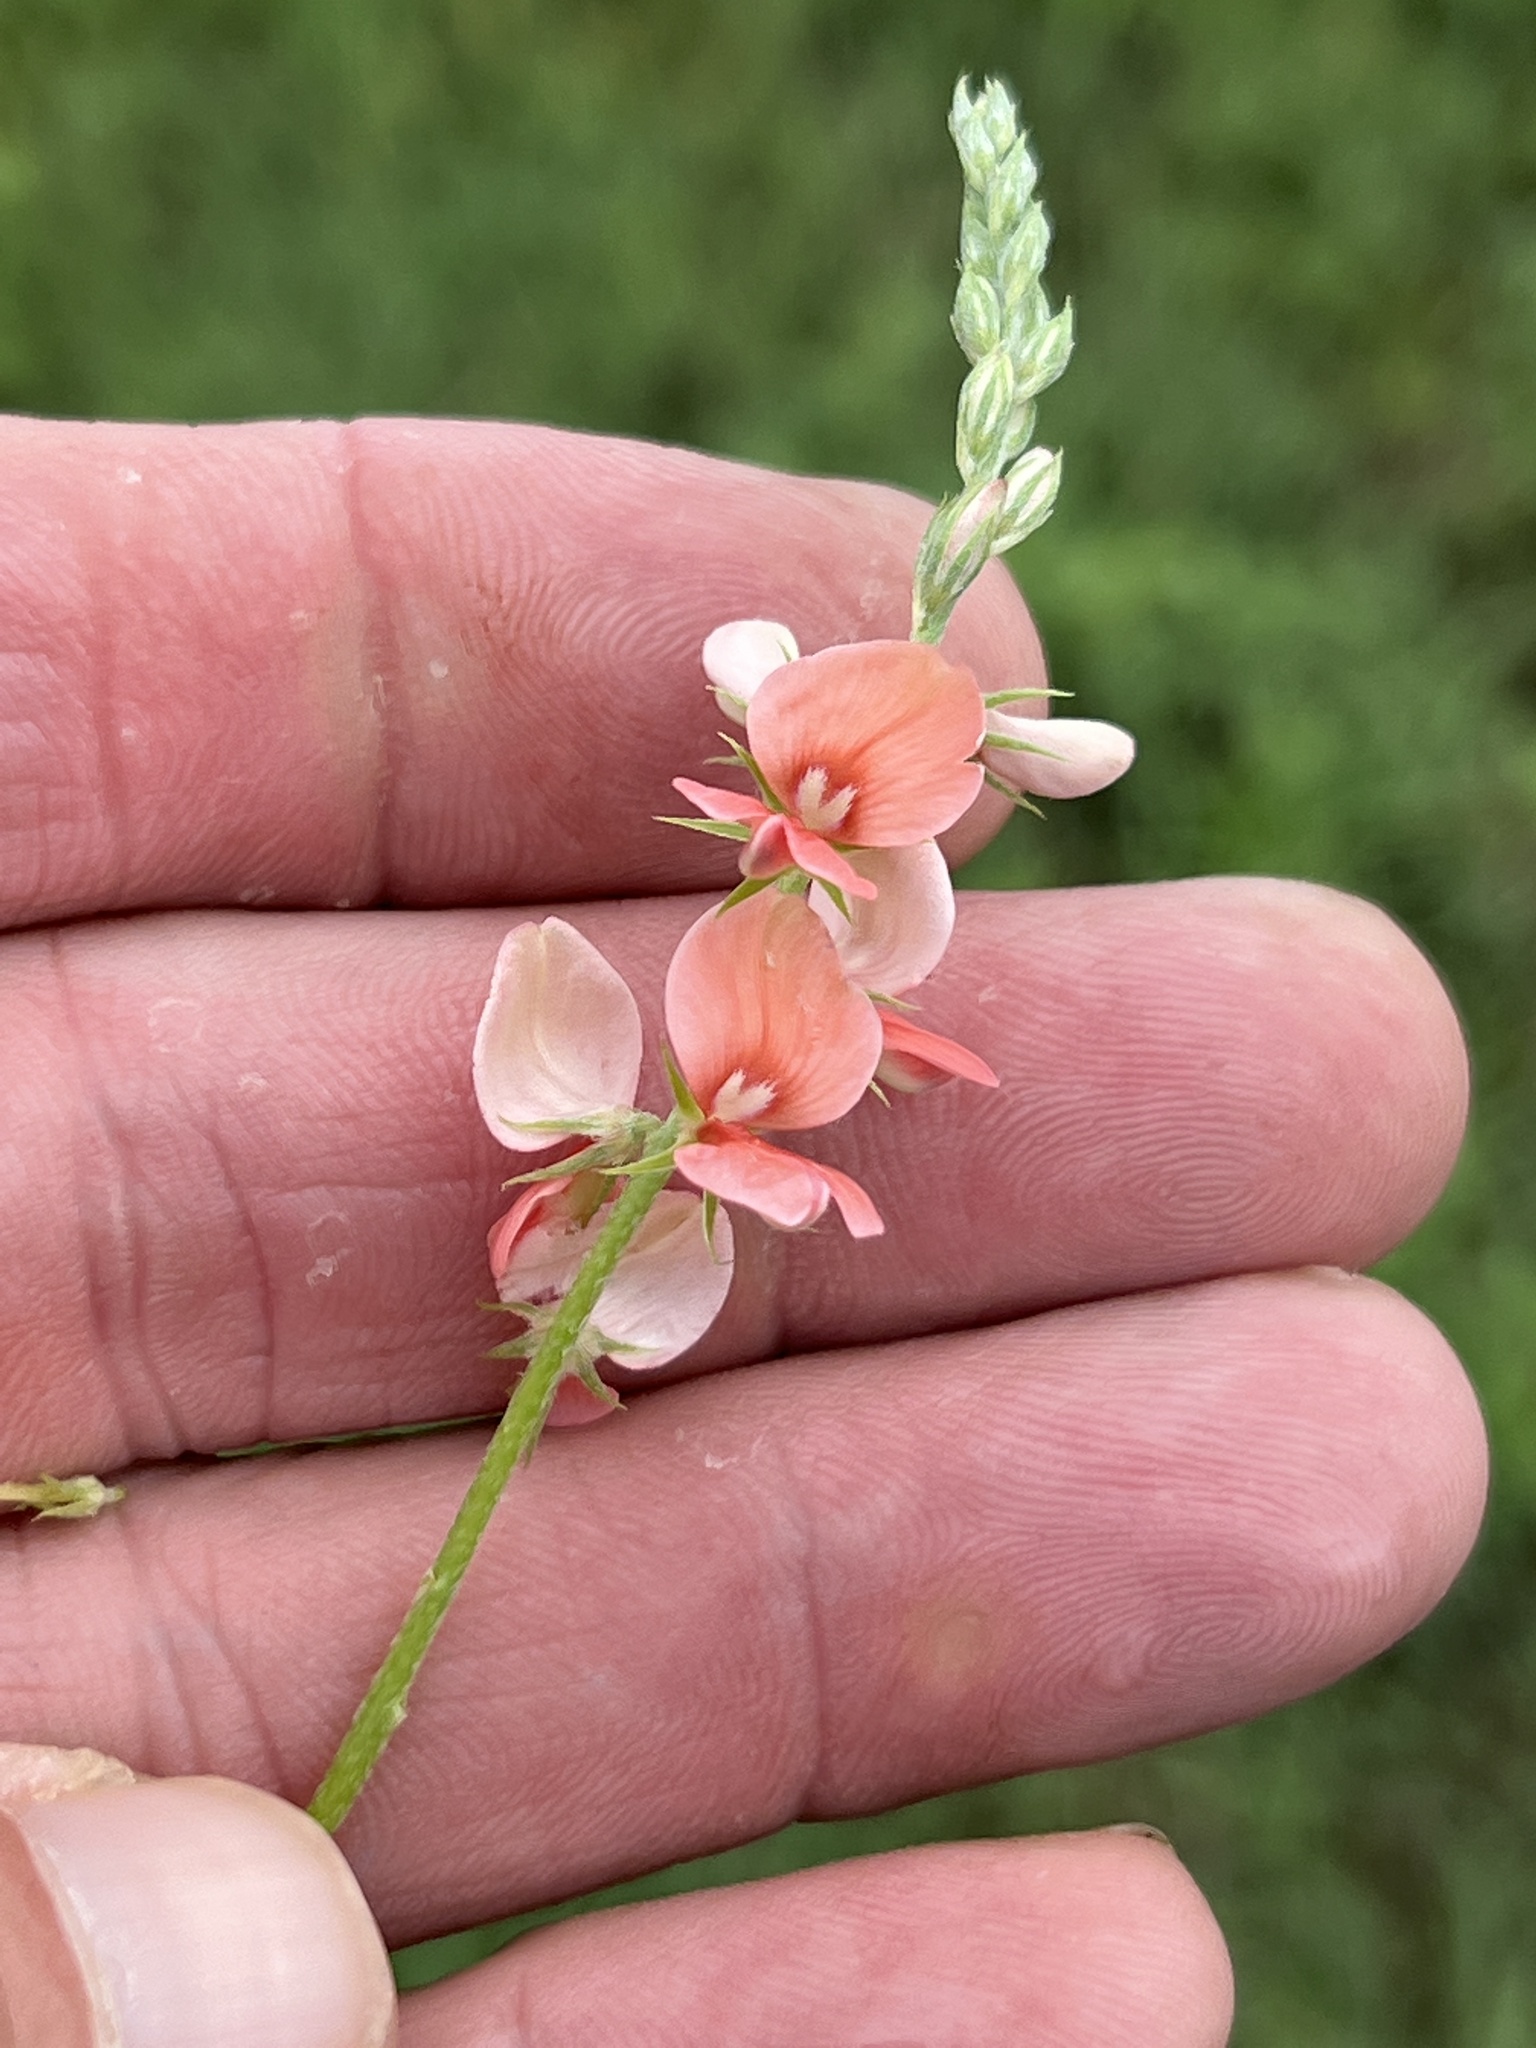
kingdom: Plantae
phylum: Tracheophyta
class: Magnoliopsida
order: Fabales
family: Fabaceae
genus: Indigofera
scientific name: Indigofera miniata
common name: Coast indigo
